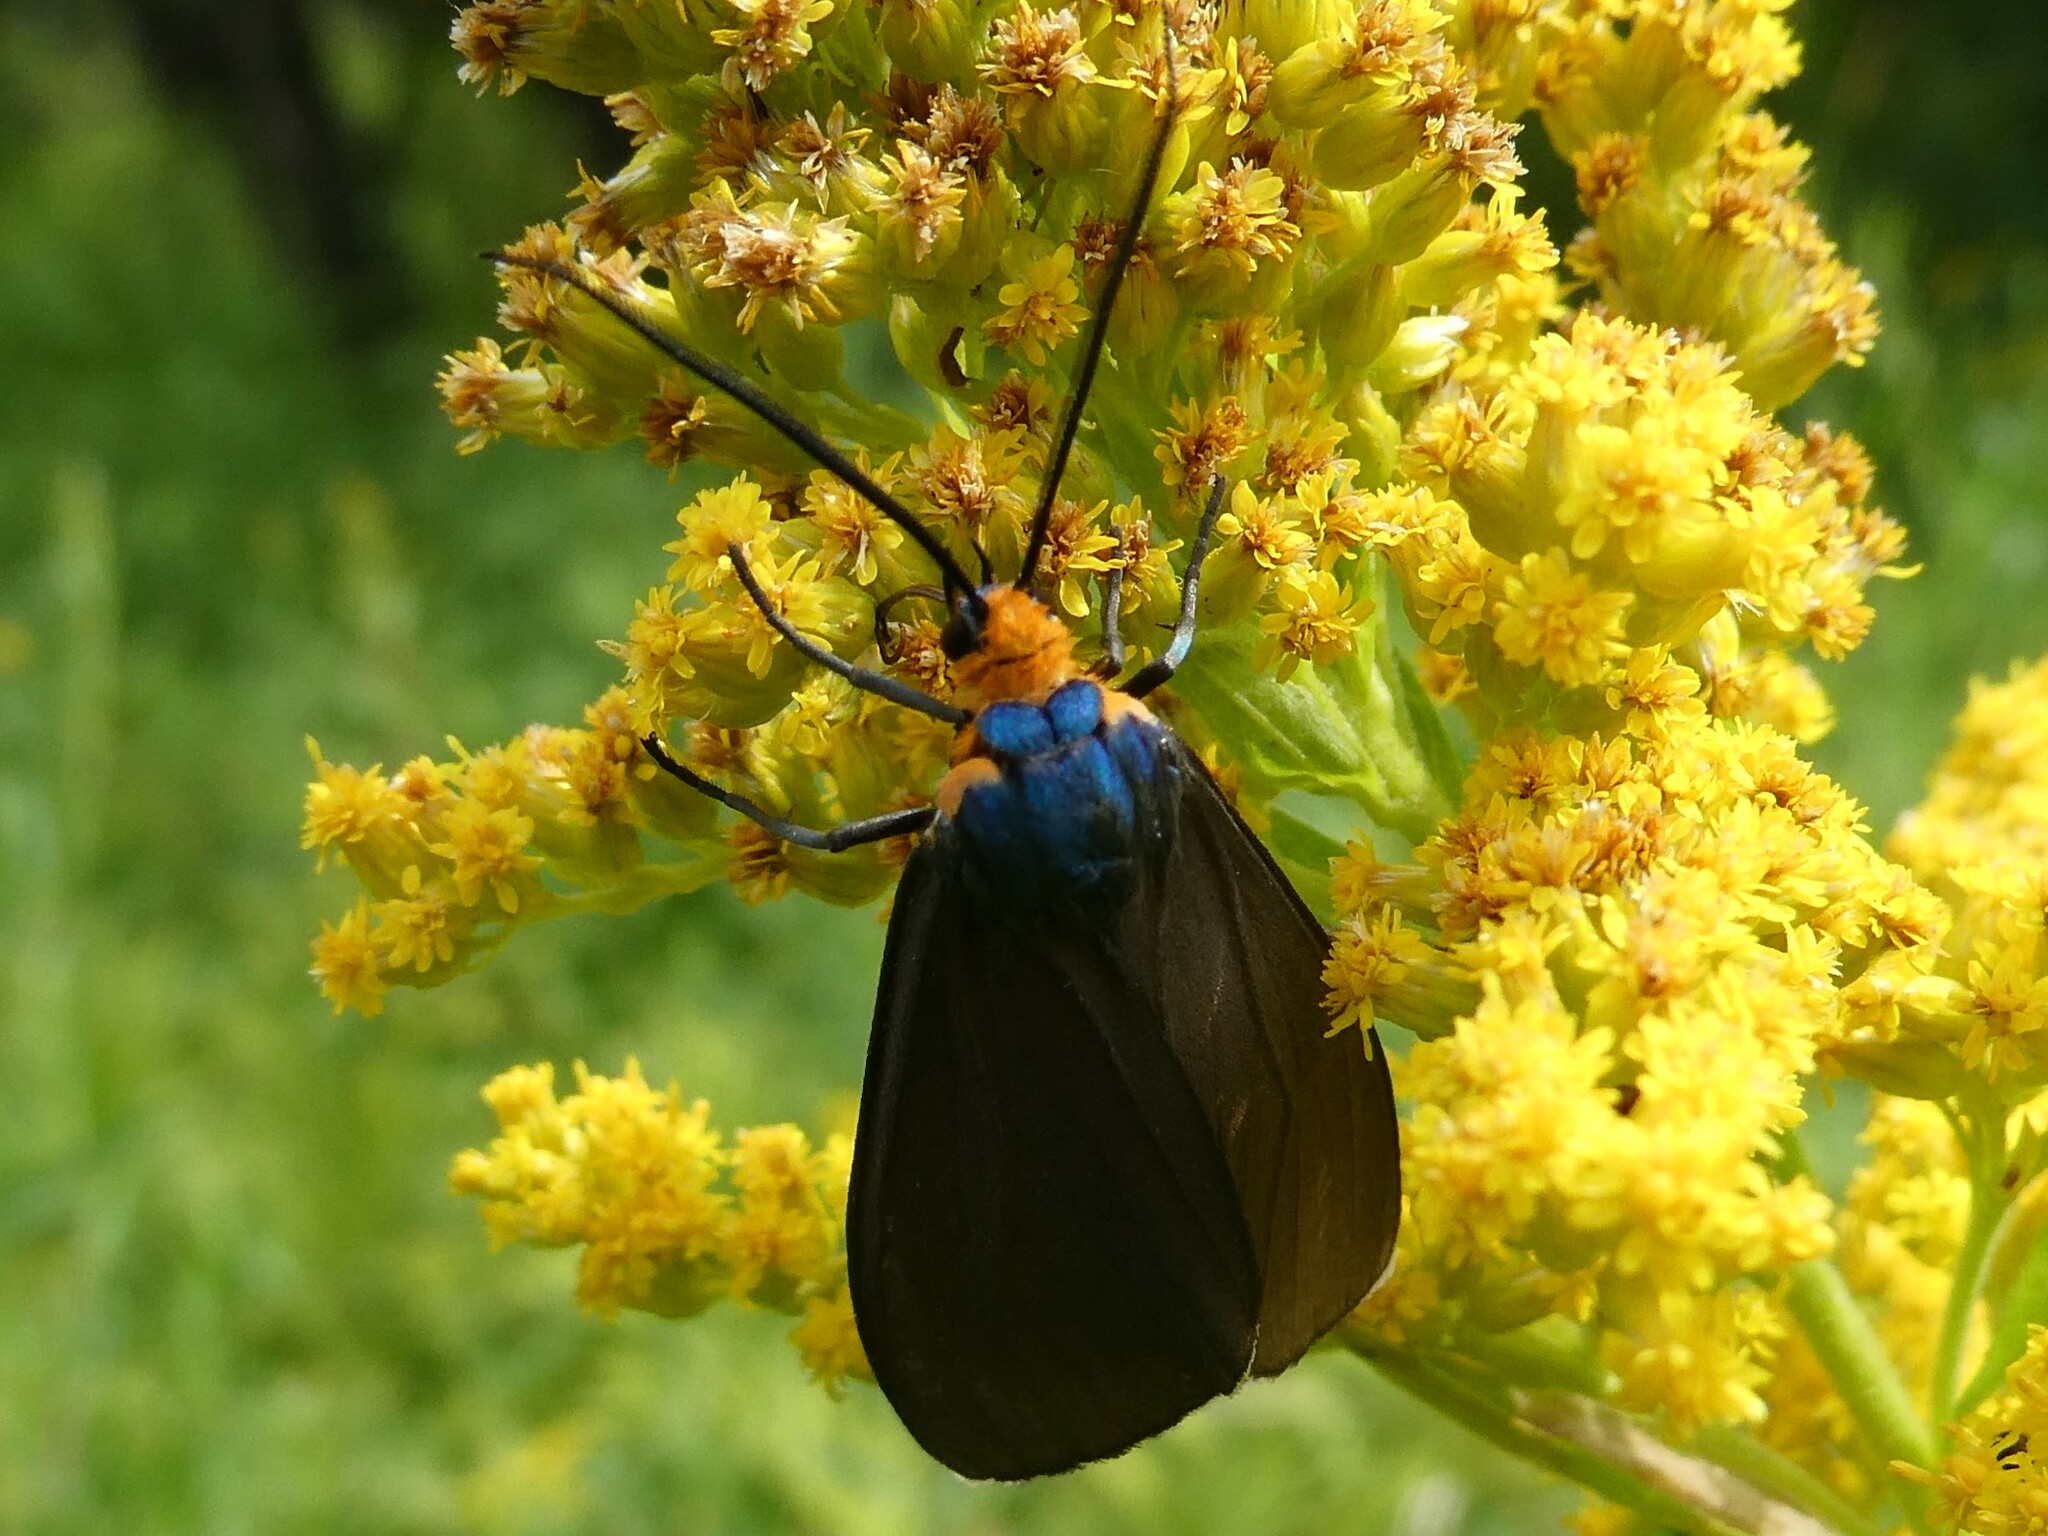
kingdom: Animalia
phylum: Arthropoda
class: Insecta
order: Lepidoptera
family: Erebidae
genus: Ctenucha
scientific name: Ctenucha virginica
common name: Virginia ctenucha moth
